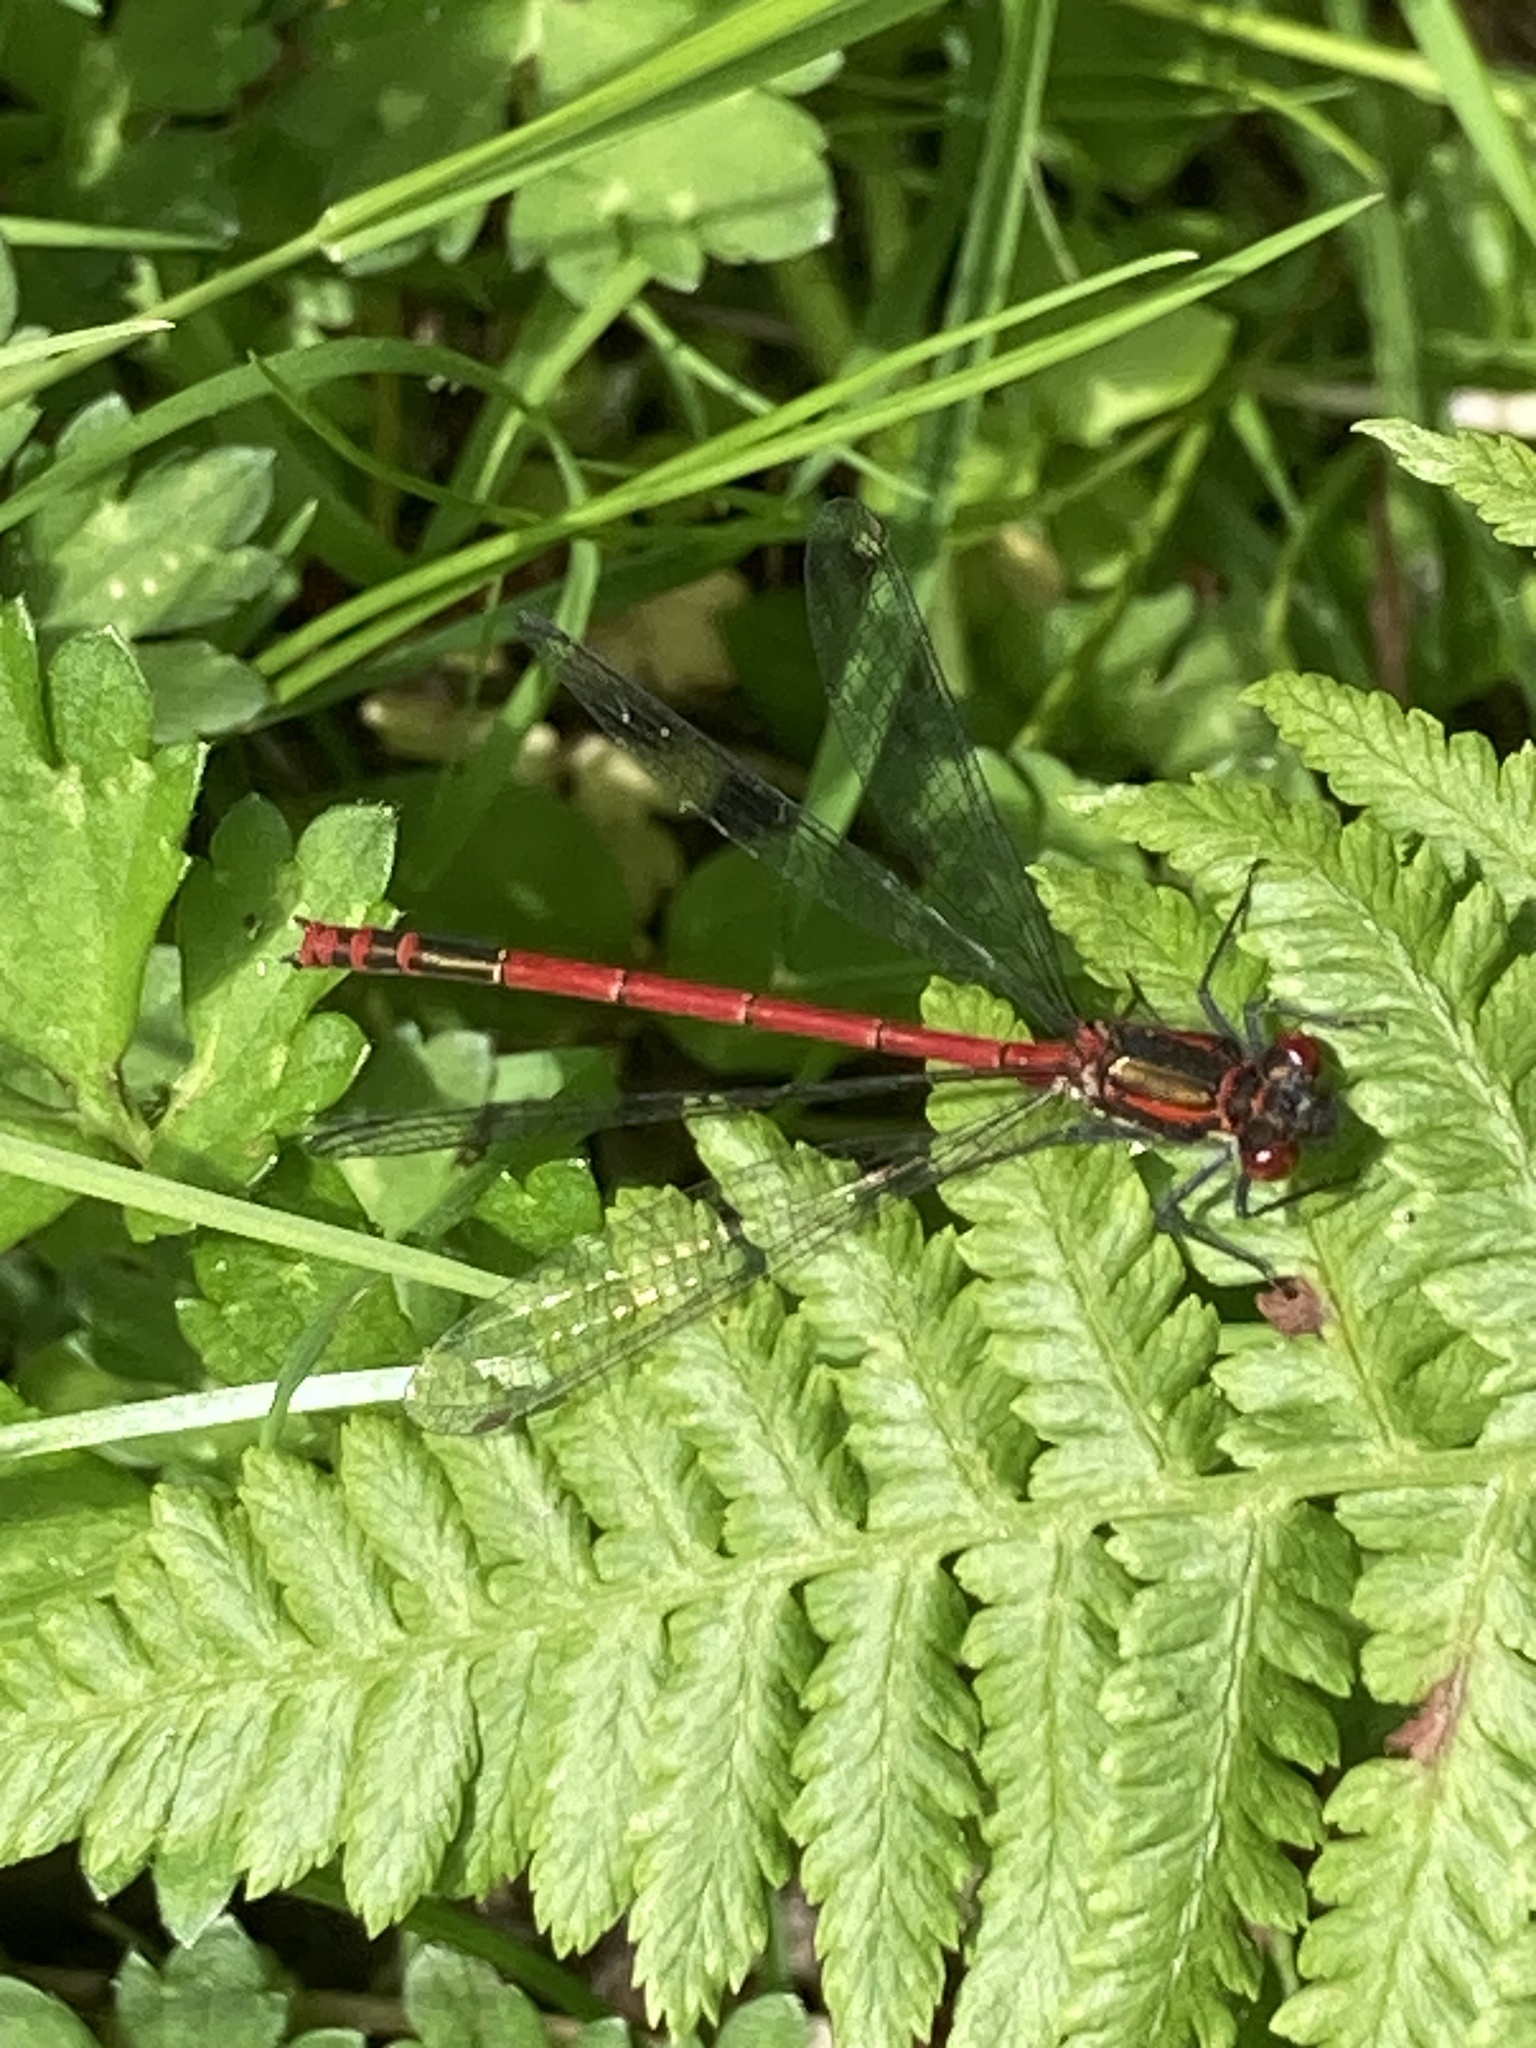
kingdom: Animalia
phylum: Arthropoda
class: Insecta
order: Odonata
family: Coenagrionidae
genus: Pyrrhosoma
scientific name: Pyrrhosoma nymphula
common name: Large red damsel
